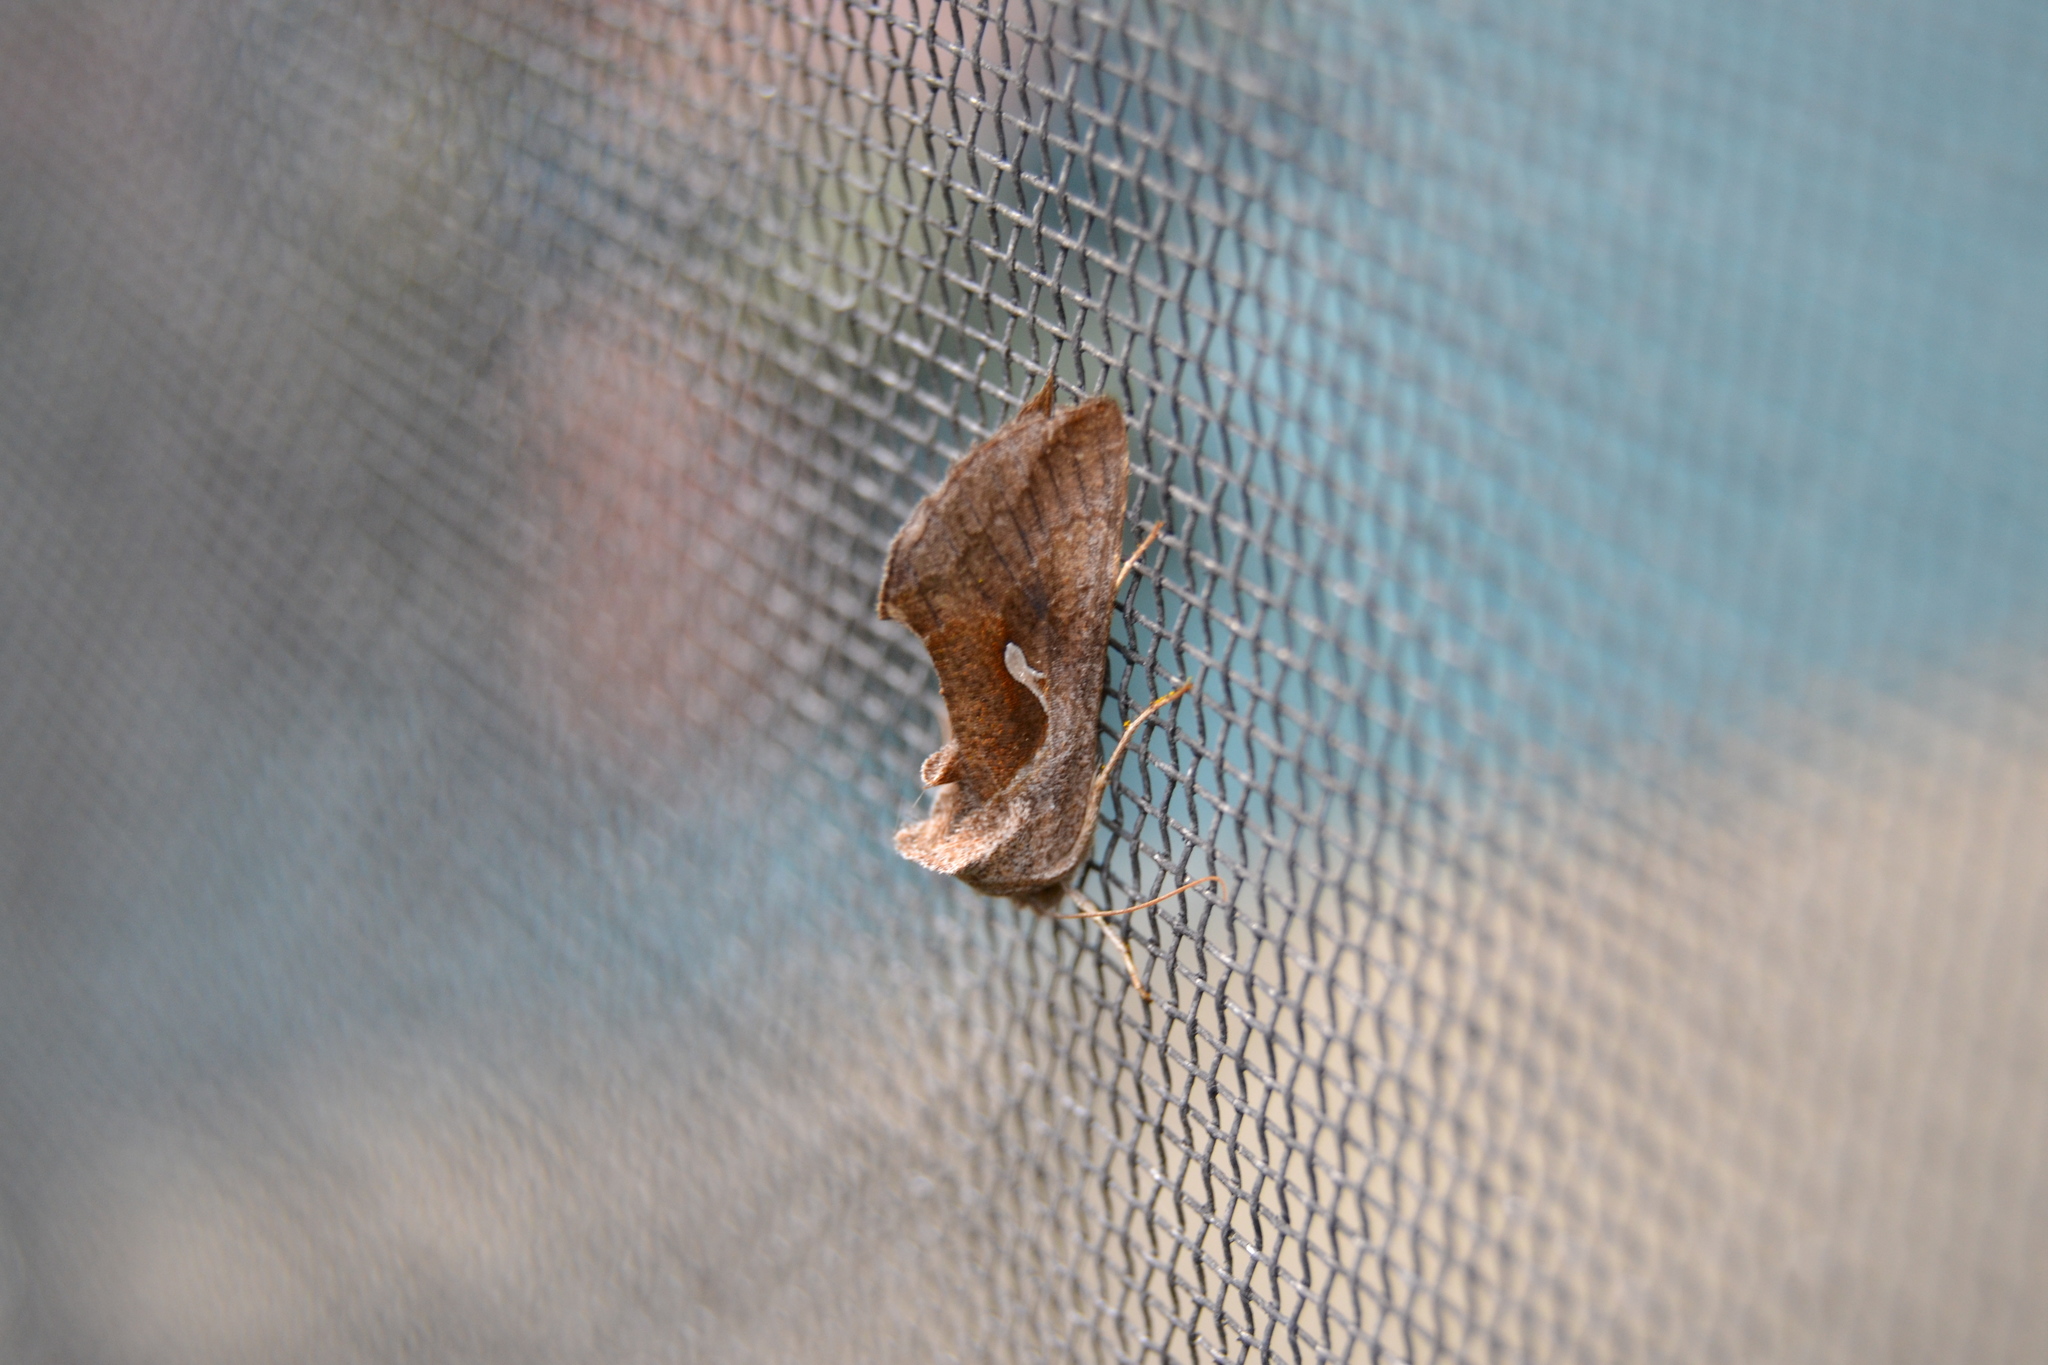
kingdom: Animalia
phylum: Arthropoda
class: Insecta
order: Lepidoptera
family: Noctuidae
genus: Anagrapha
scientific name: Anagrapha falcifera
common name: Celery looper
